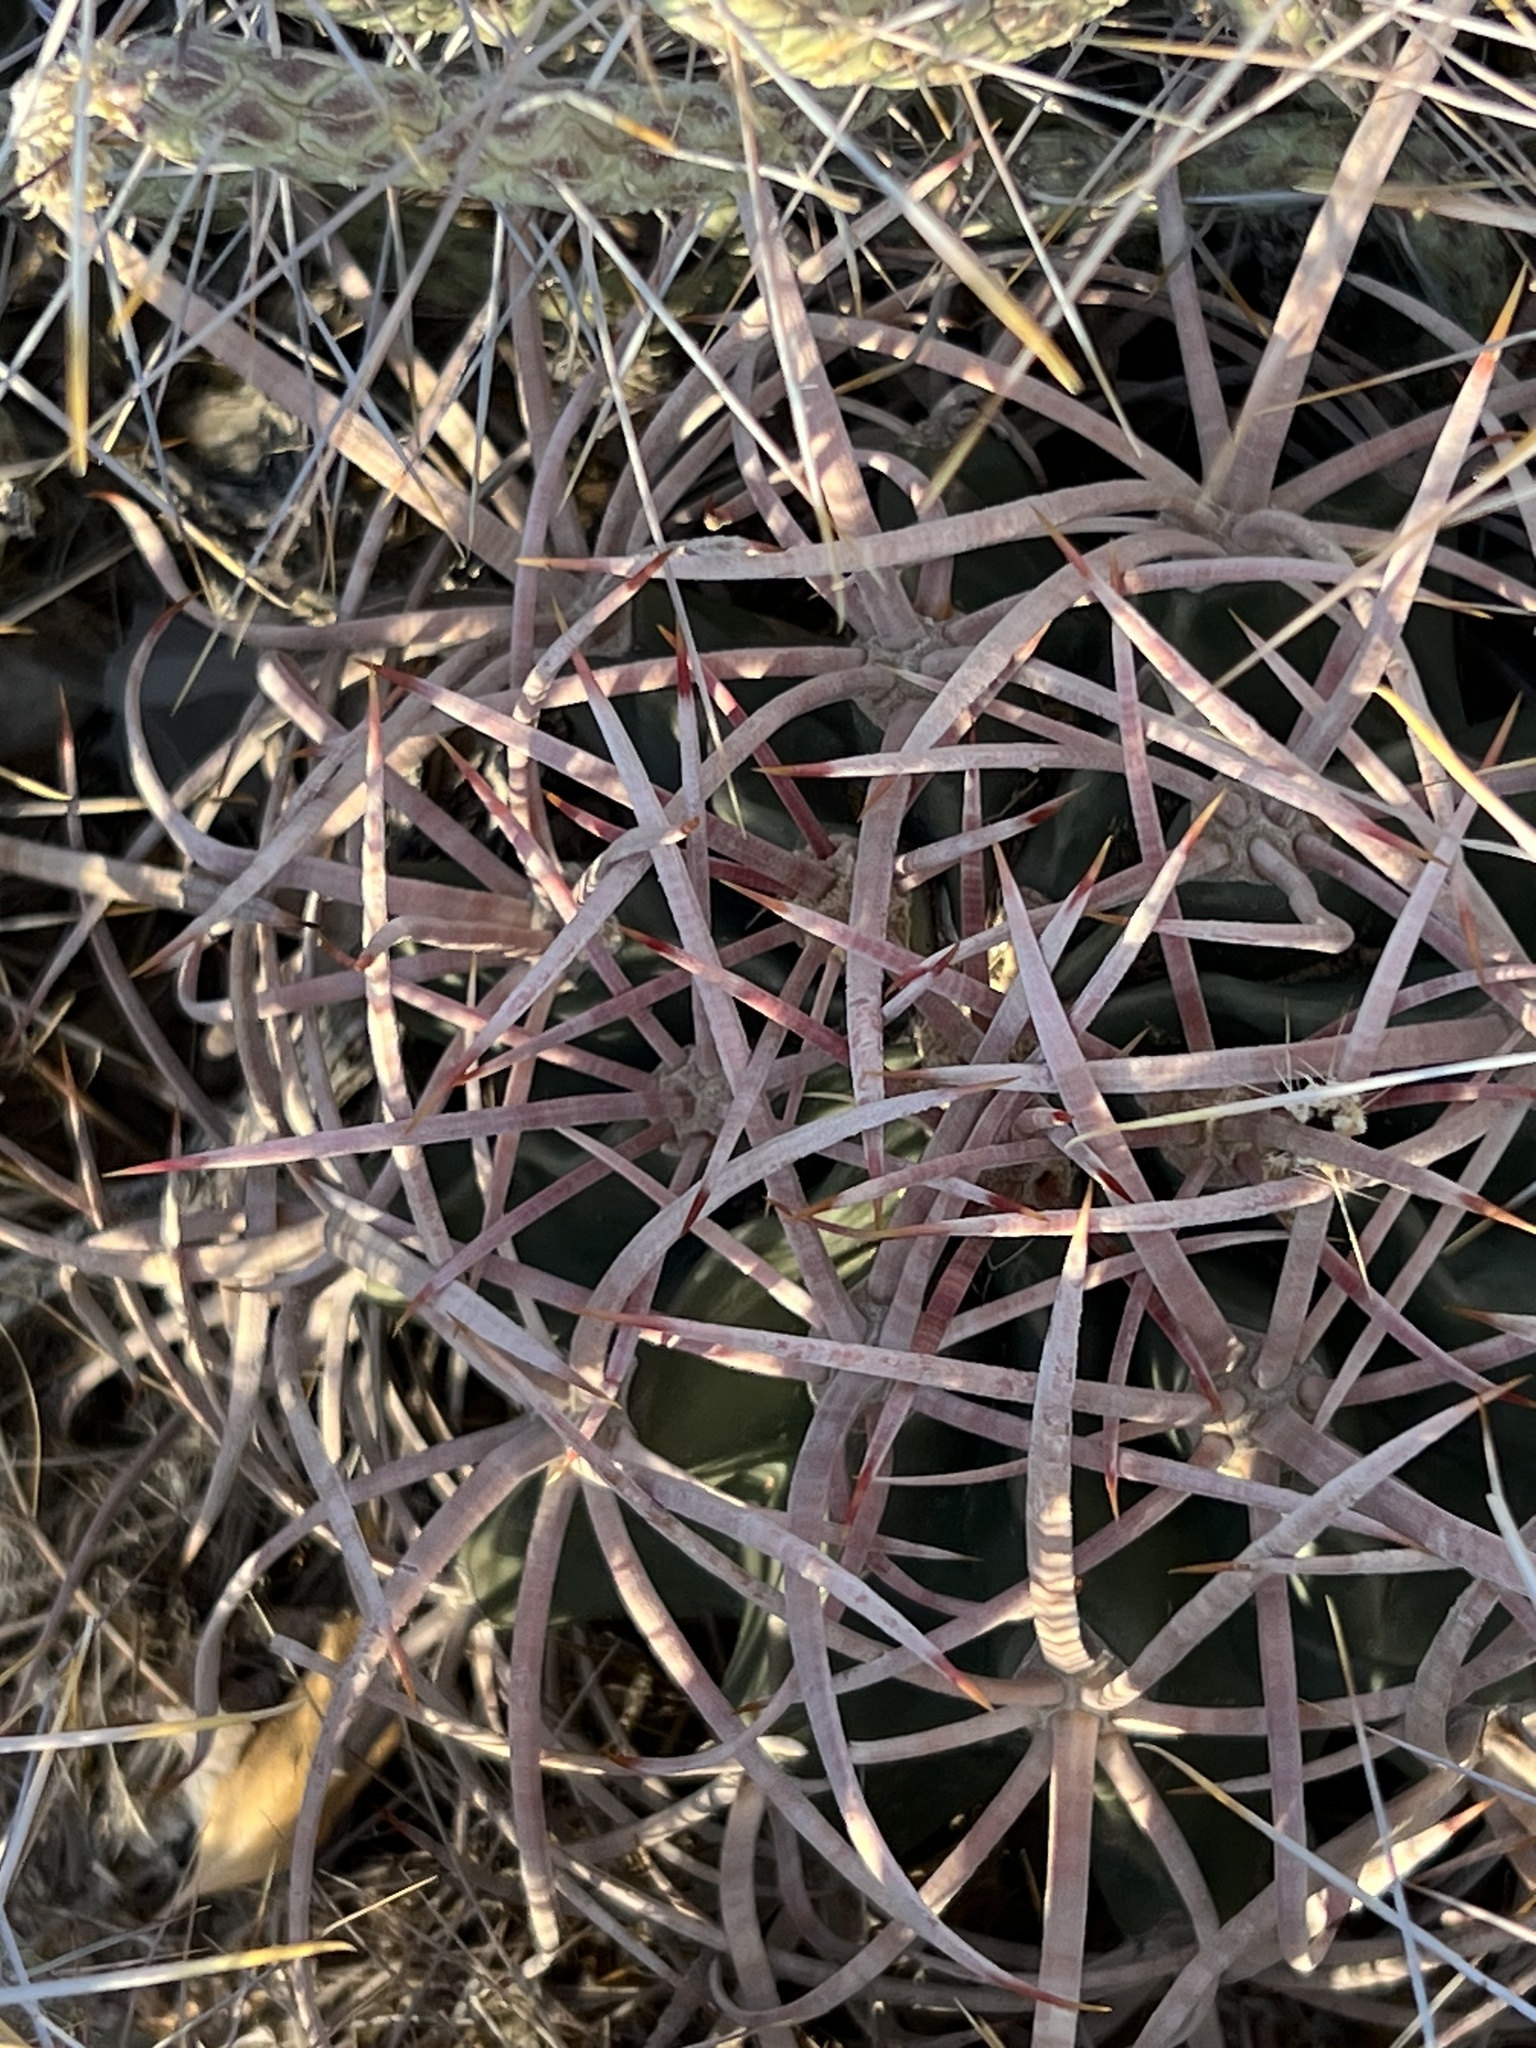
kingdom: Plantae
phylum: Tracheophyta
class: Magnoliopsida
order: Caryophyllales
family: Cactaceae
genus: Echinocactus
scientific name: Echinocactus polycephalus
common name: Cottontop cactus
